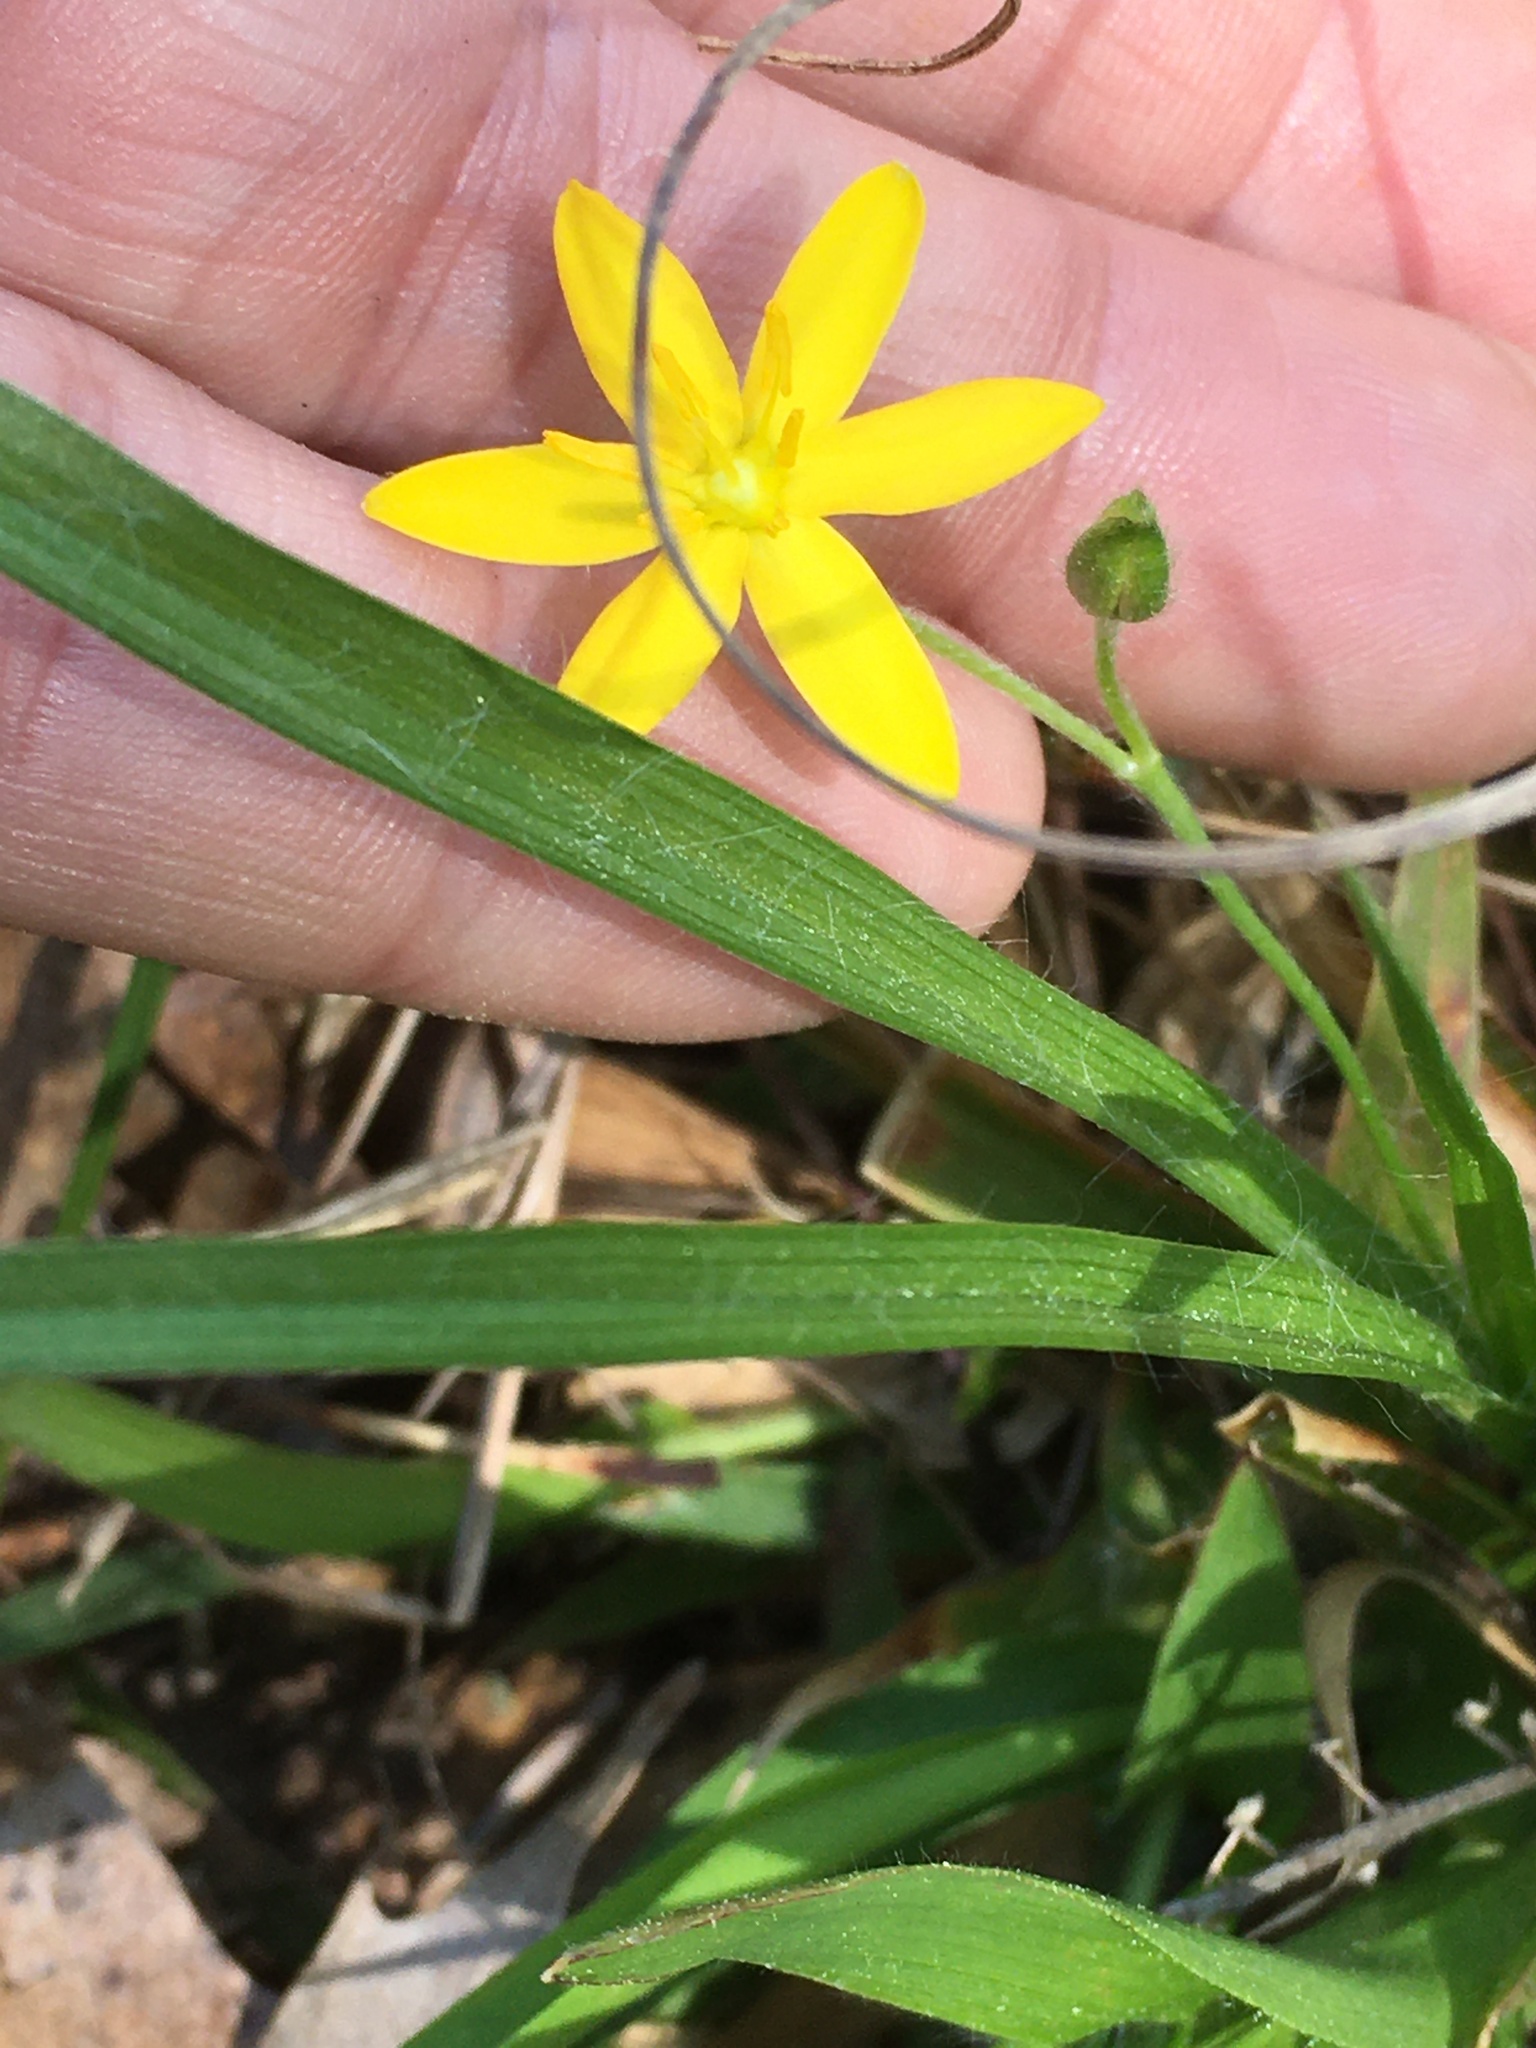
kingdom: Plantae
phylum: Tracheophyta
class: Liliopsida
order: Asparagales
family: Hypoxidaceae
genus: Hypoxis
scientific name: Hypoxis hirsuta
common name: Common goldstar
